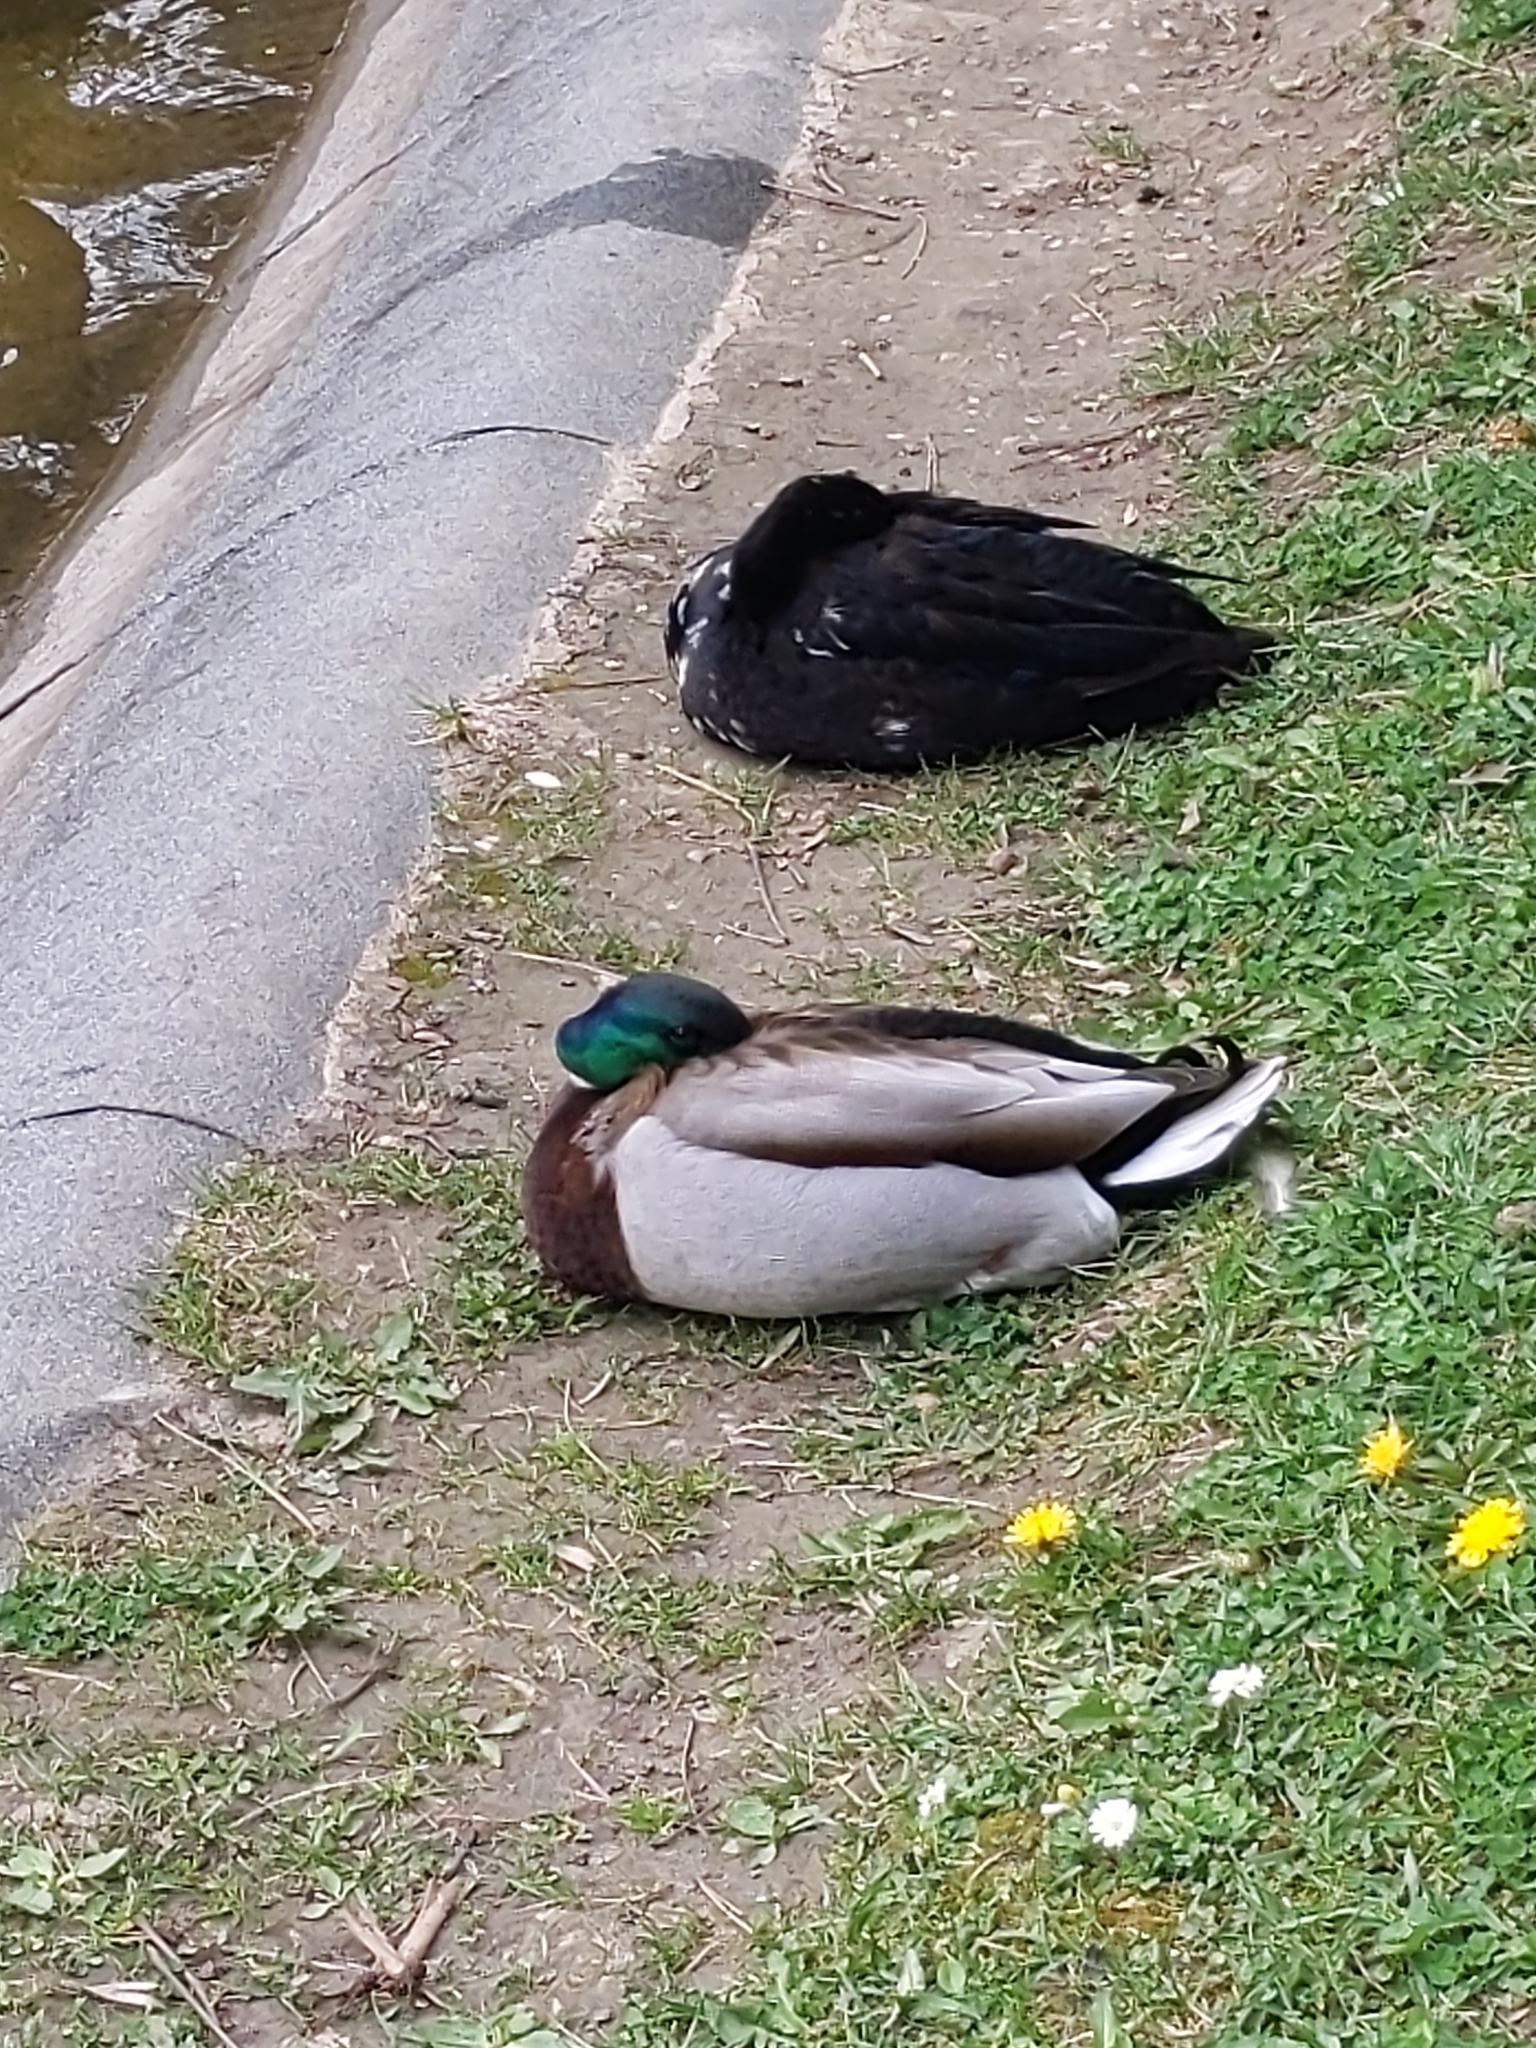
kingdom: Animalia
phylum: Chordata
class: Aves
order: Anseriformes
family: Anatidae
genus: Anas
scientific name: Anas platyrhynchos
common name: Mallard
